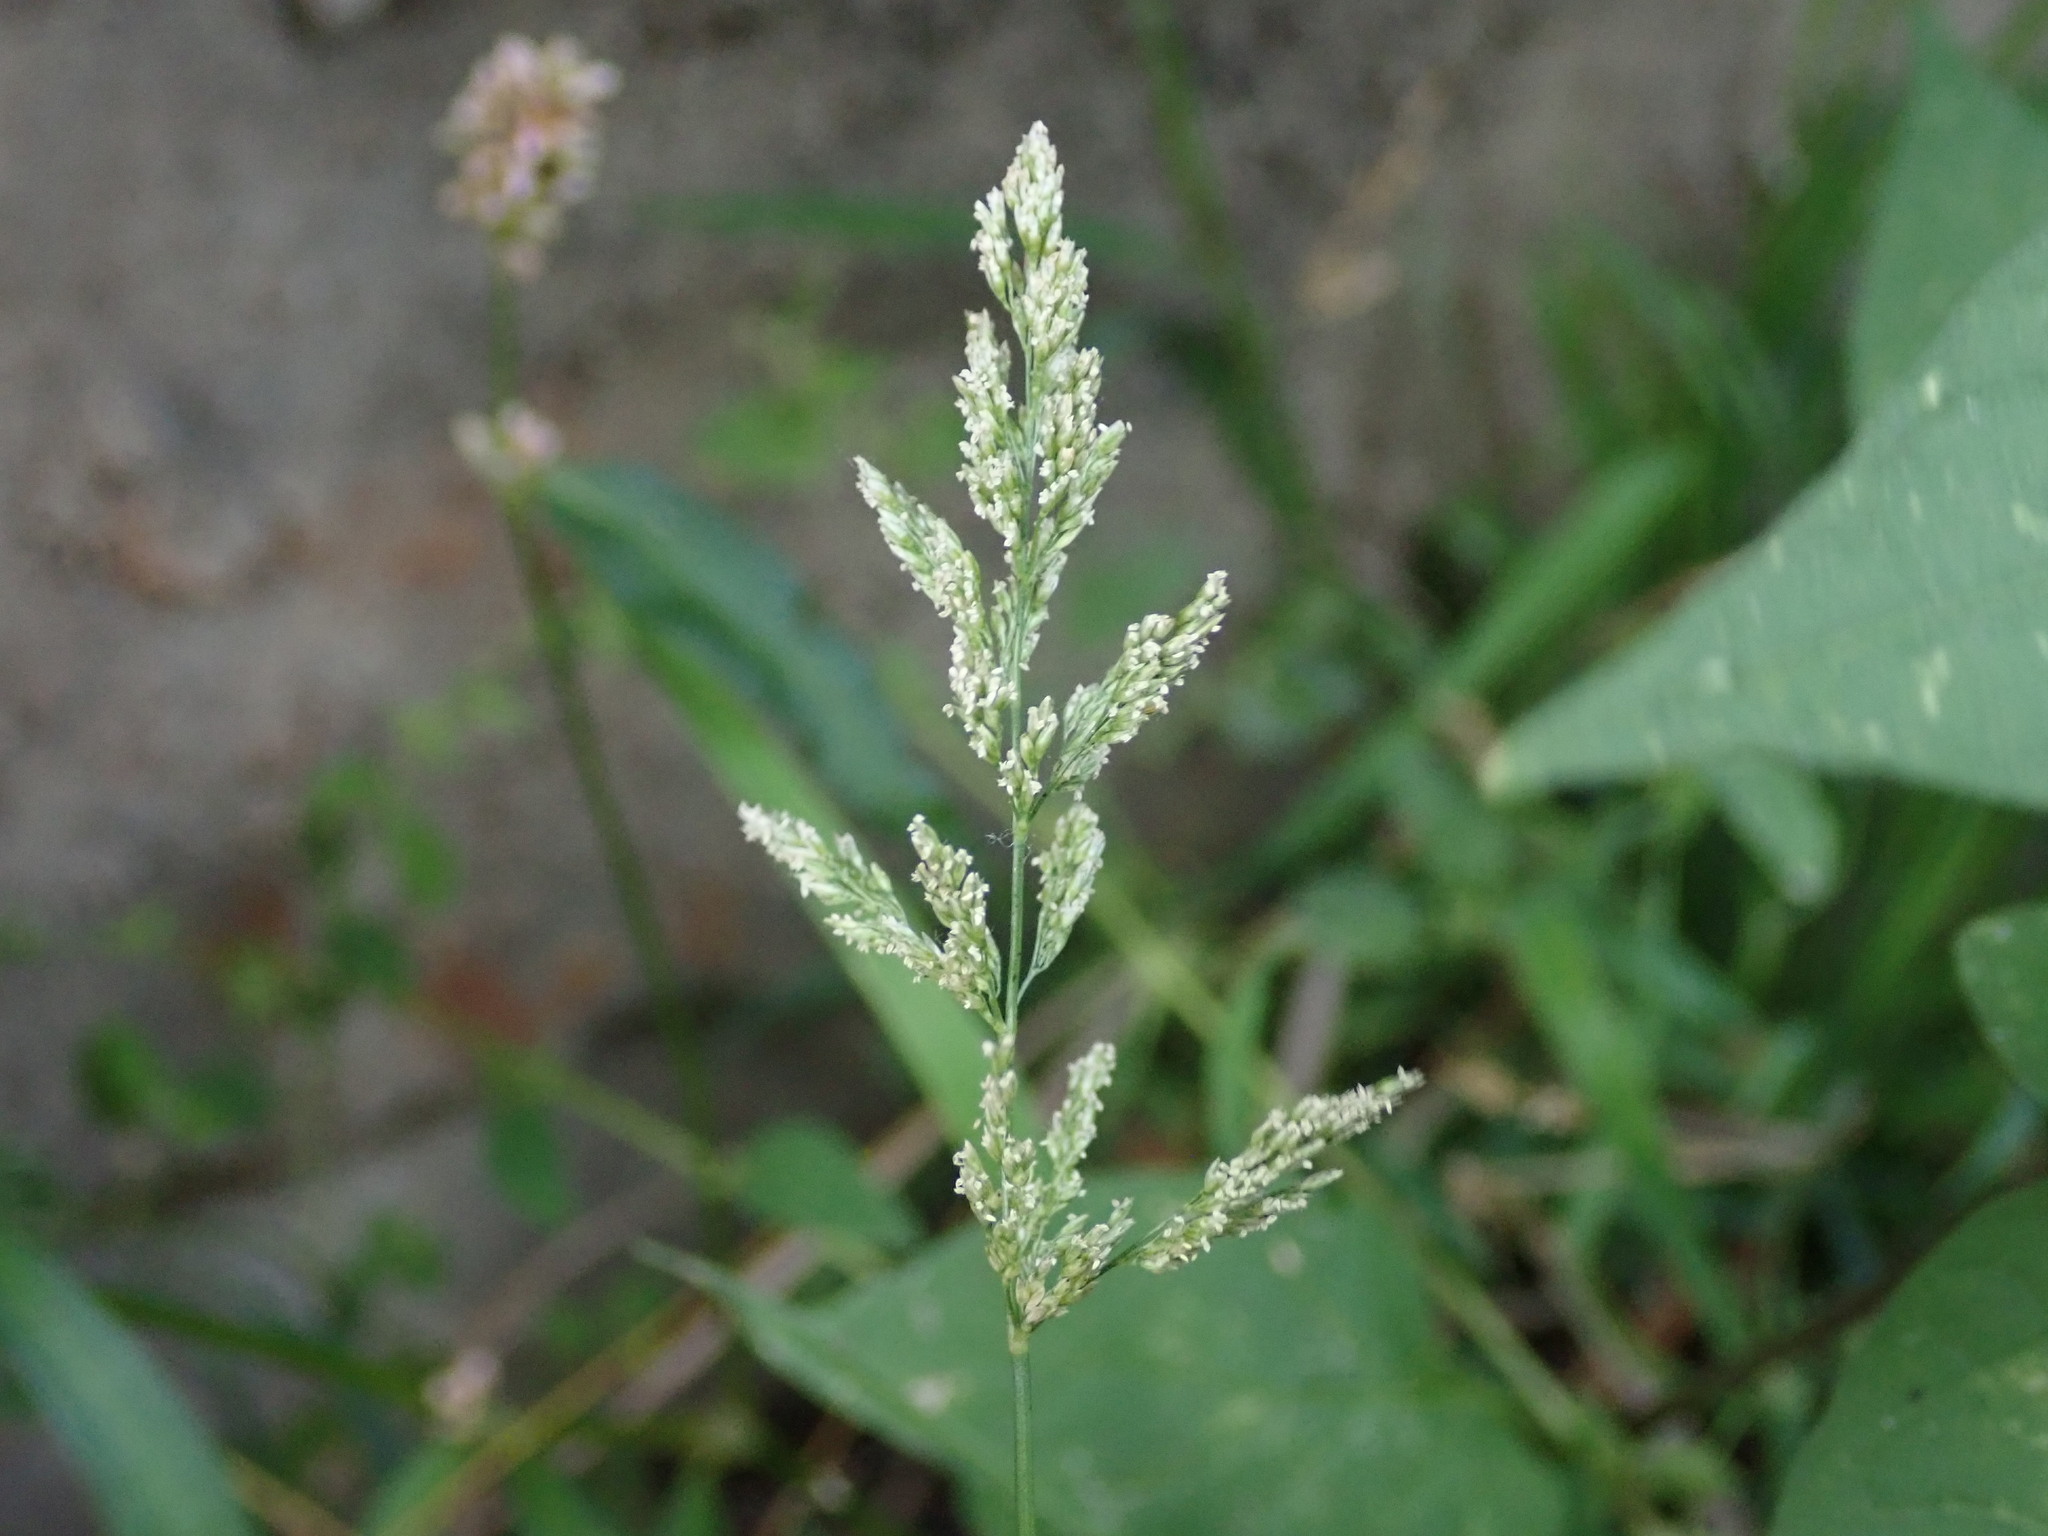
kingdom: Plantae
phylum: Tracheophyta
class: Liliopsida
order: Poales
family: Poaceae
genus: Polypogon
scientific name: Polypogon viridis
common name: Water bent
